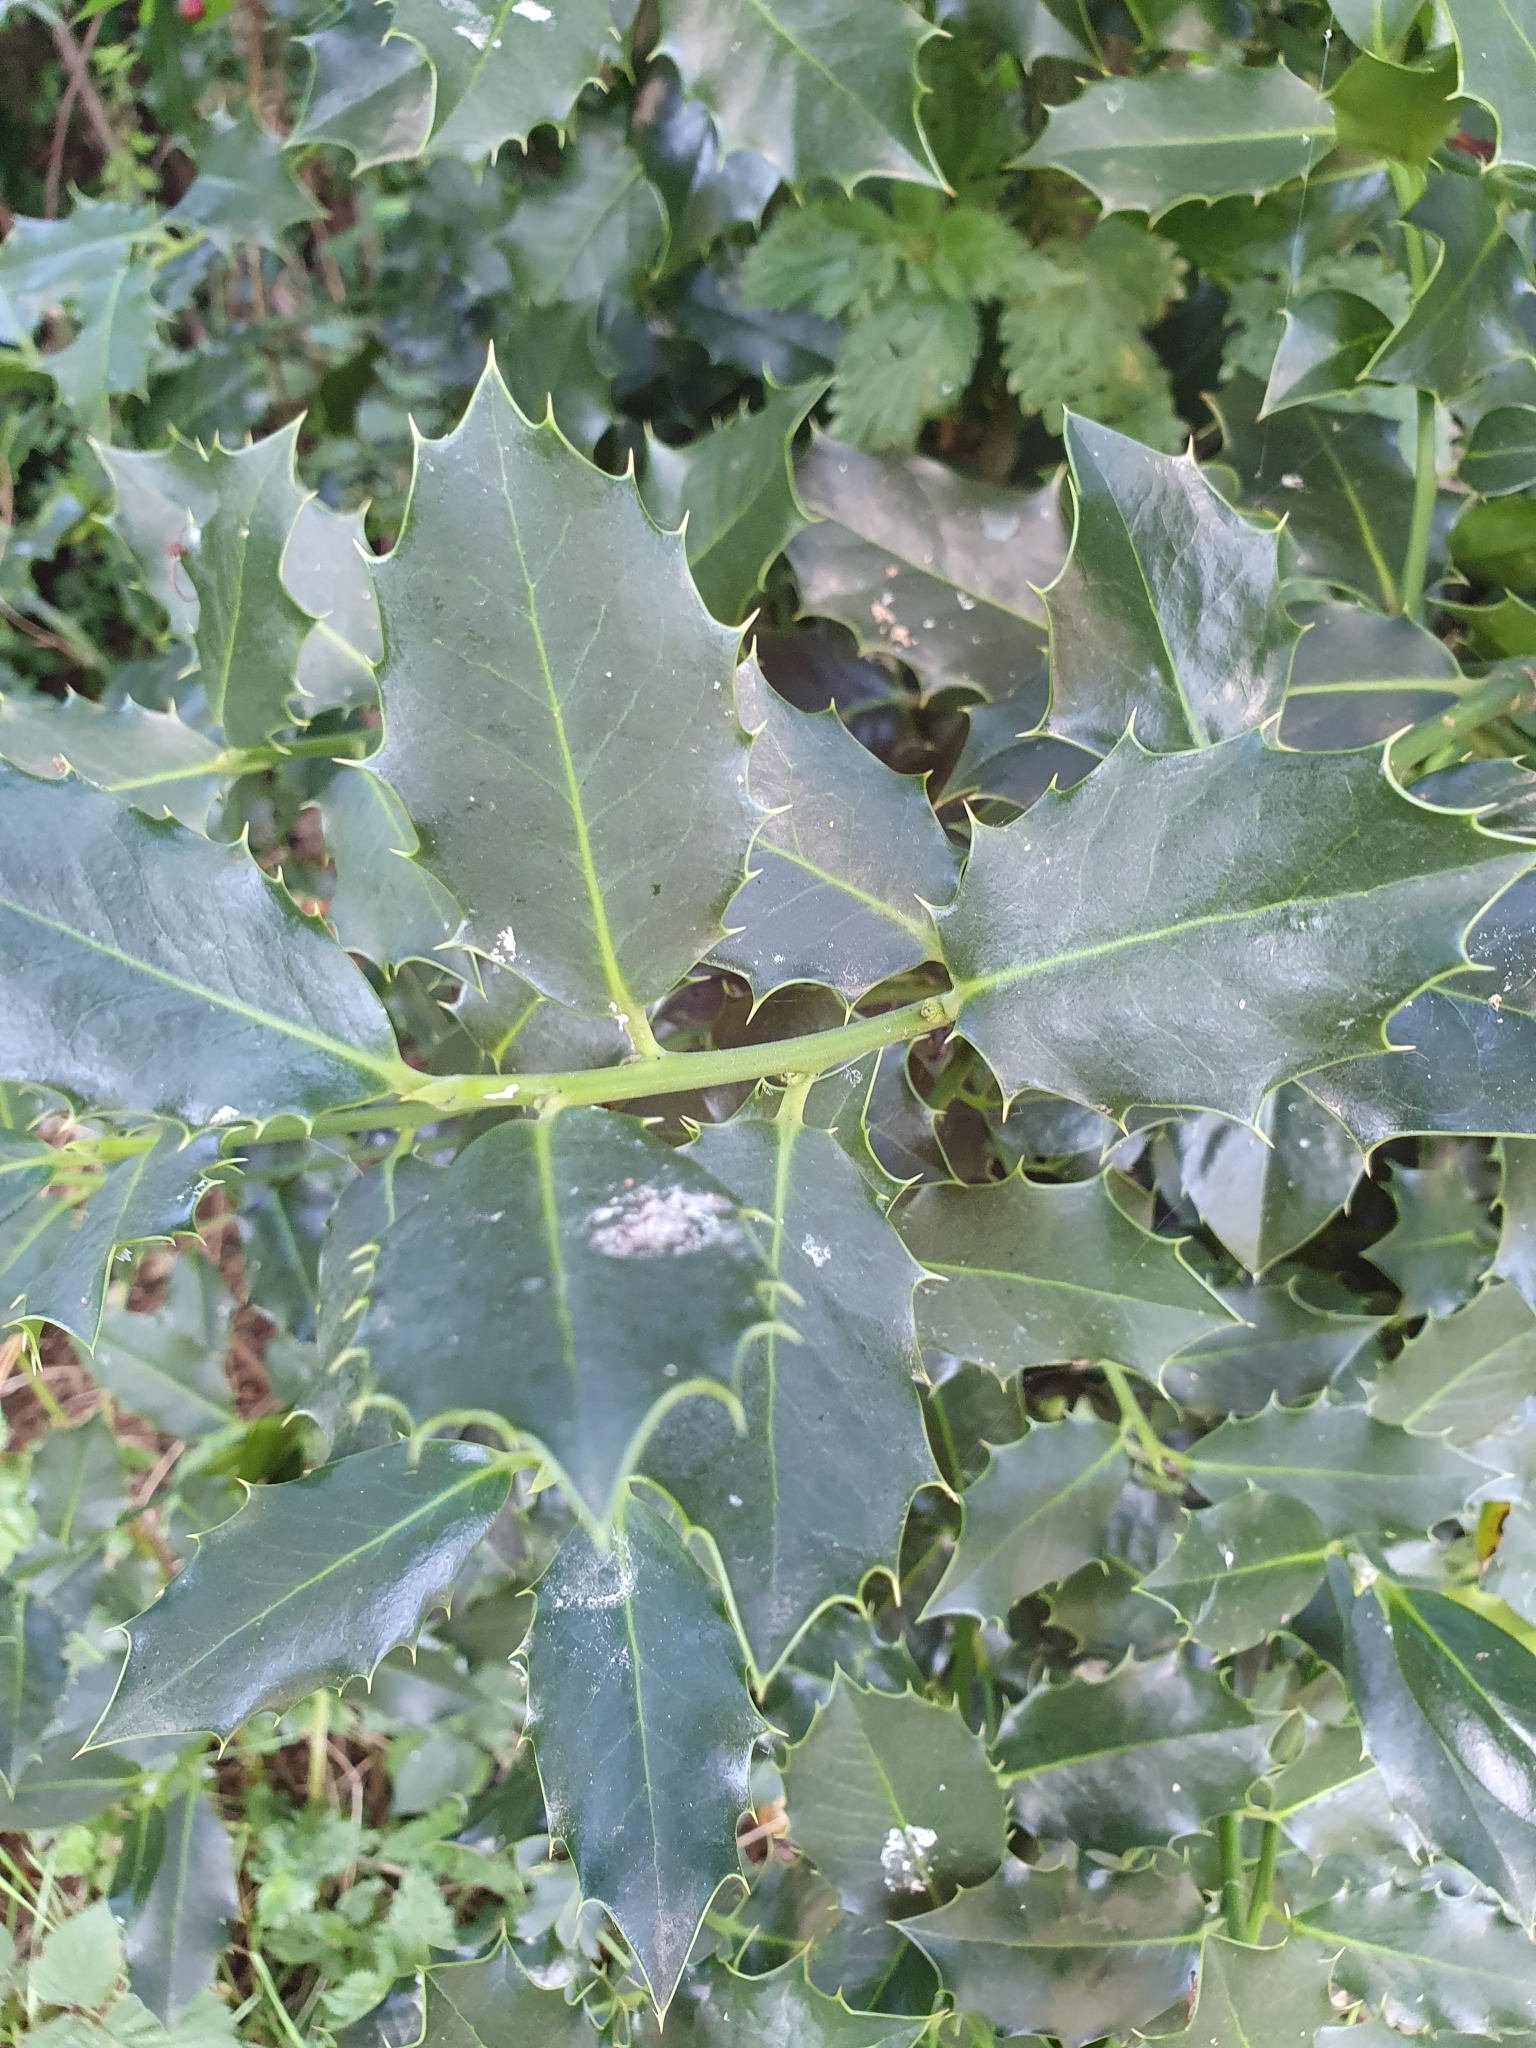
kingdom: Plantae
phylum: Tracheophyta
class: Magnoliopsida
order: Aquifoliales
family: Aquifoliaceae
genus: Ilex
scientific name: Ilex aquifolium
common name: English holly
